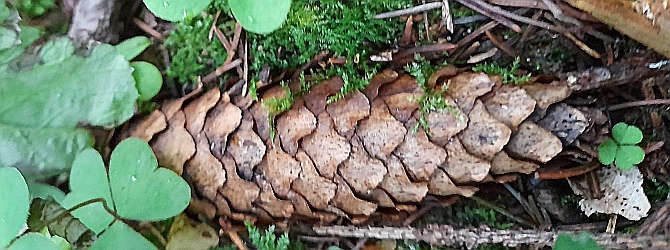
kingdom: Plantae
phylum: Tracheophyta
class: Pinopsida
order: Pinales
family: Pinaceae
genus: Picea
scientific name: Picea abies
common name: Norway spruce
